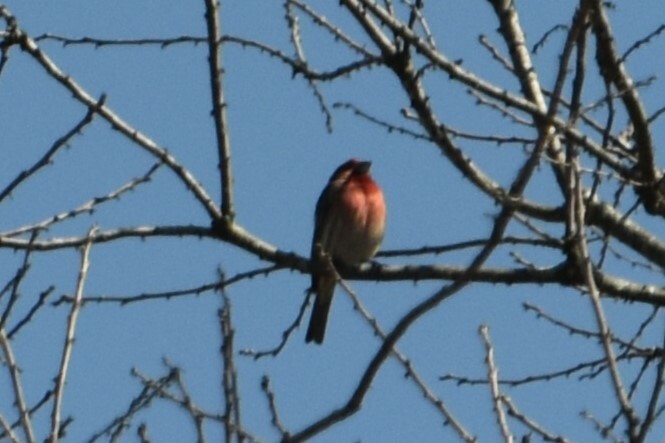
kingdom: Animalia
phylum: Chordata
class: Aves
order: Passeriformes
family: Fringillidae
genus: Haemorhous
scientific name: Haemorhous mexicanus
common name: House finch
